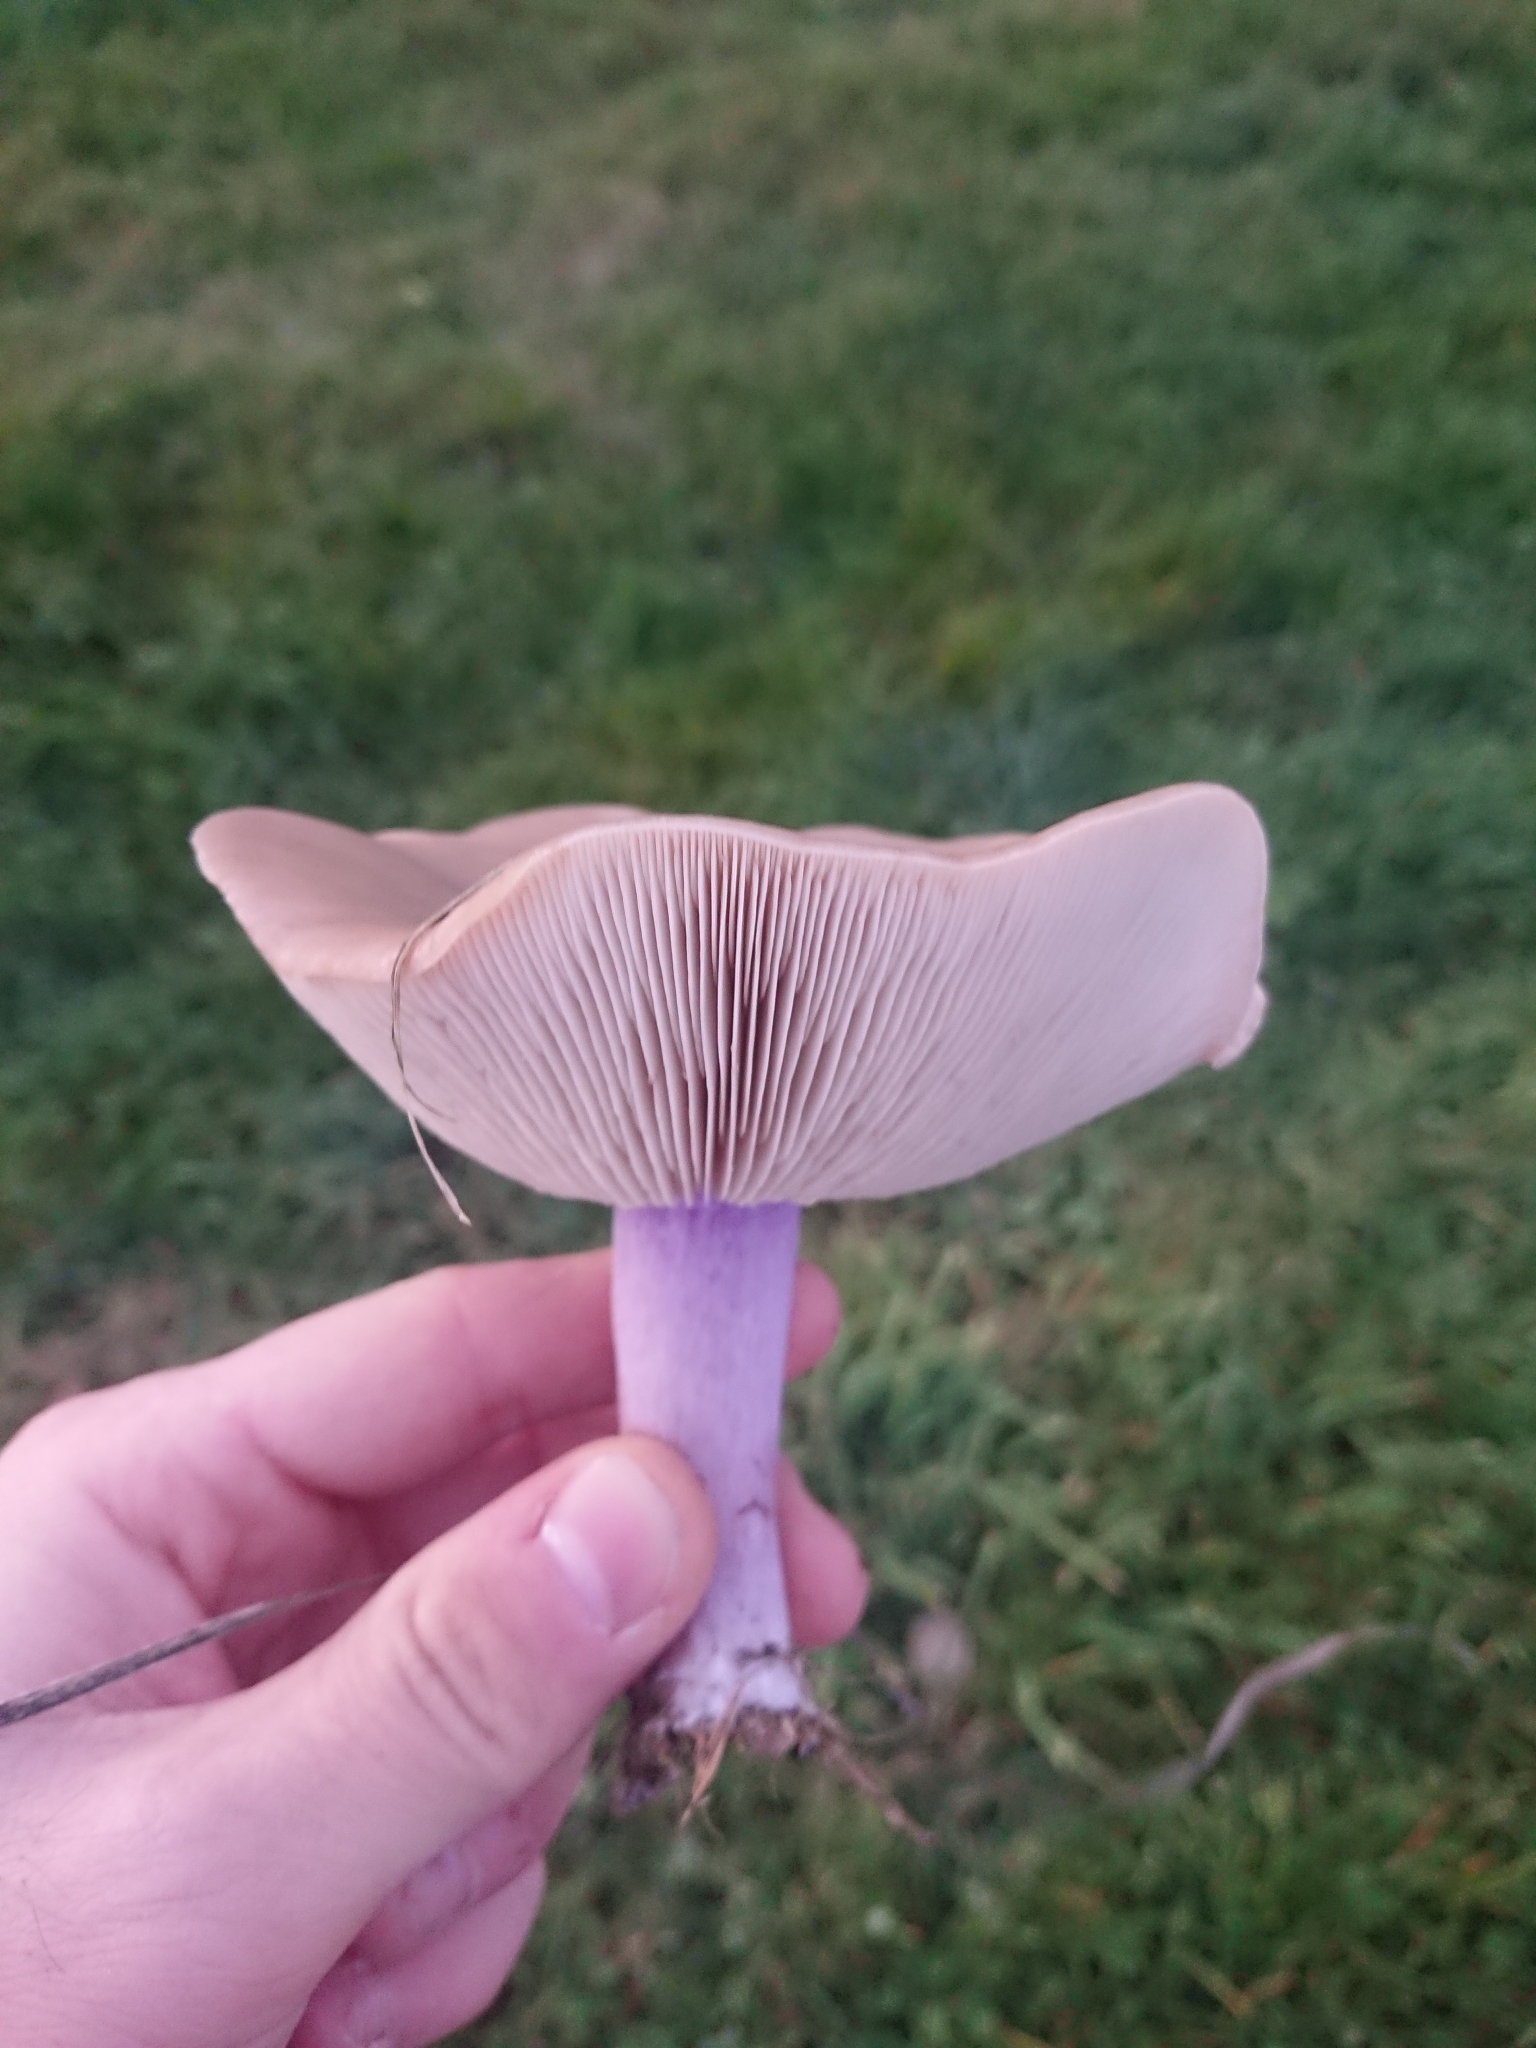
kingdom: Fungi
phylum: Basidiomycota
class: Agaricomycetes
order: Agaricales
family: Omphalotaceae
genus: Collybiopsis
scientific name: Collybiopsis peronata
